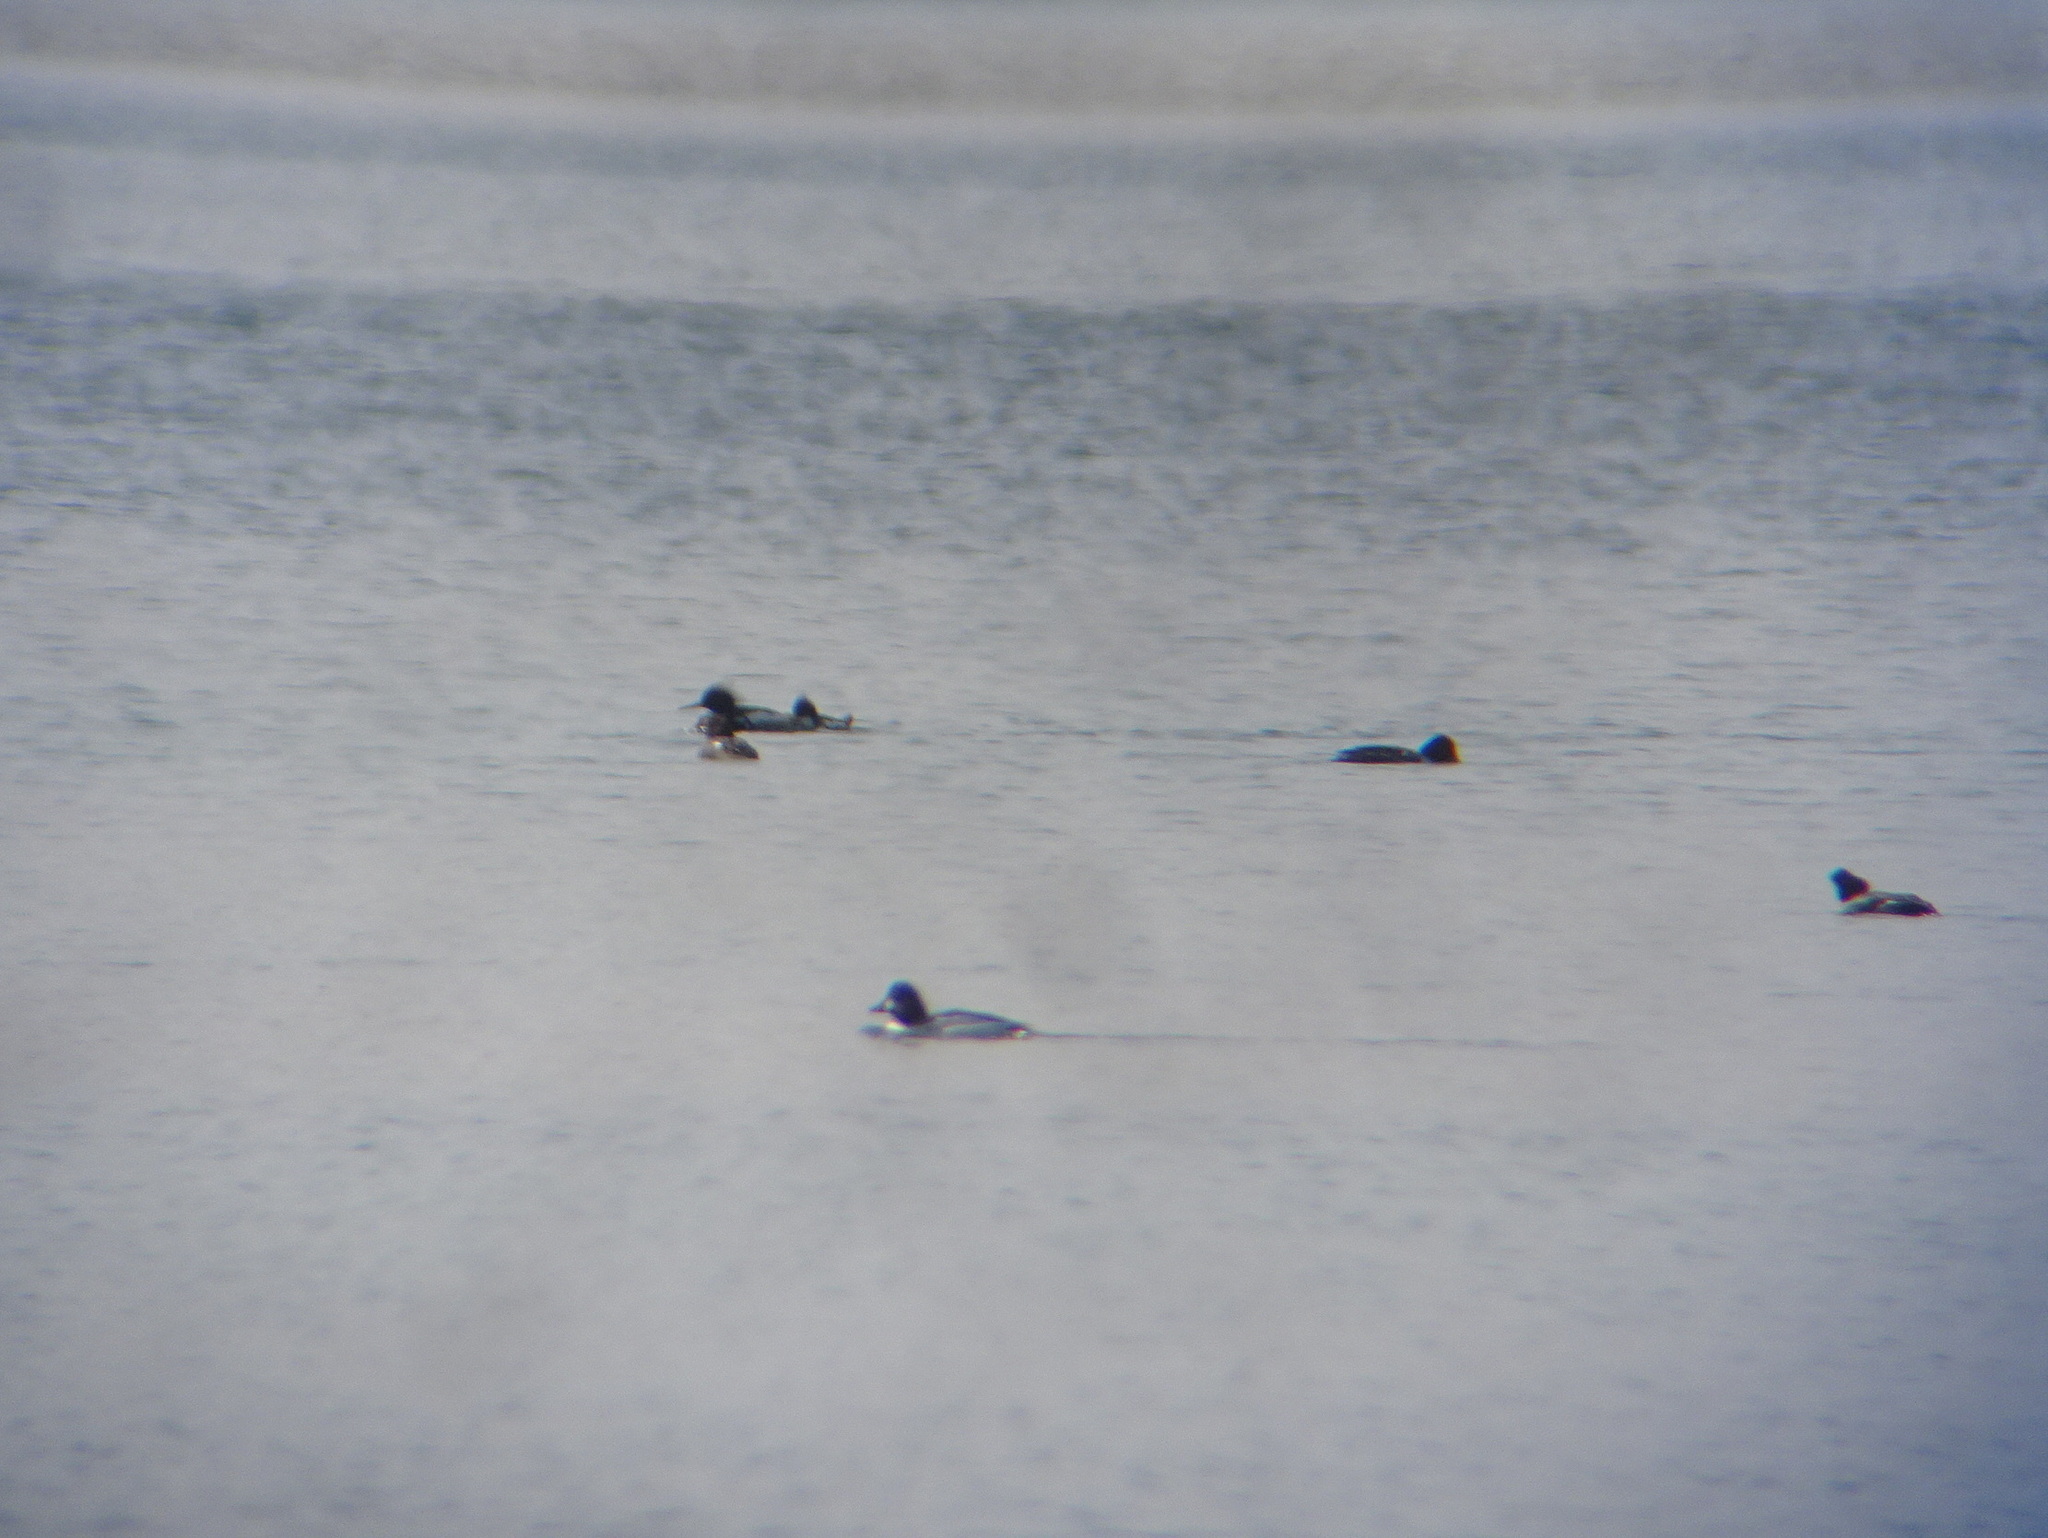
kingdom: Animalia
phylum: Chordata
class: Aves
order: Anseriformes
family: Anatidae
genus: Mergus
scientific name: Mergus serrator
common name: Red-breasted merganser
